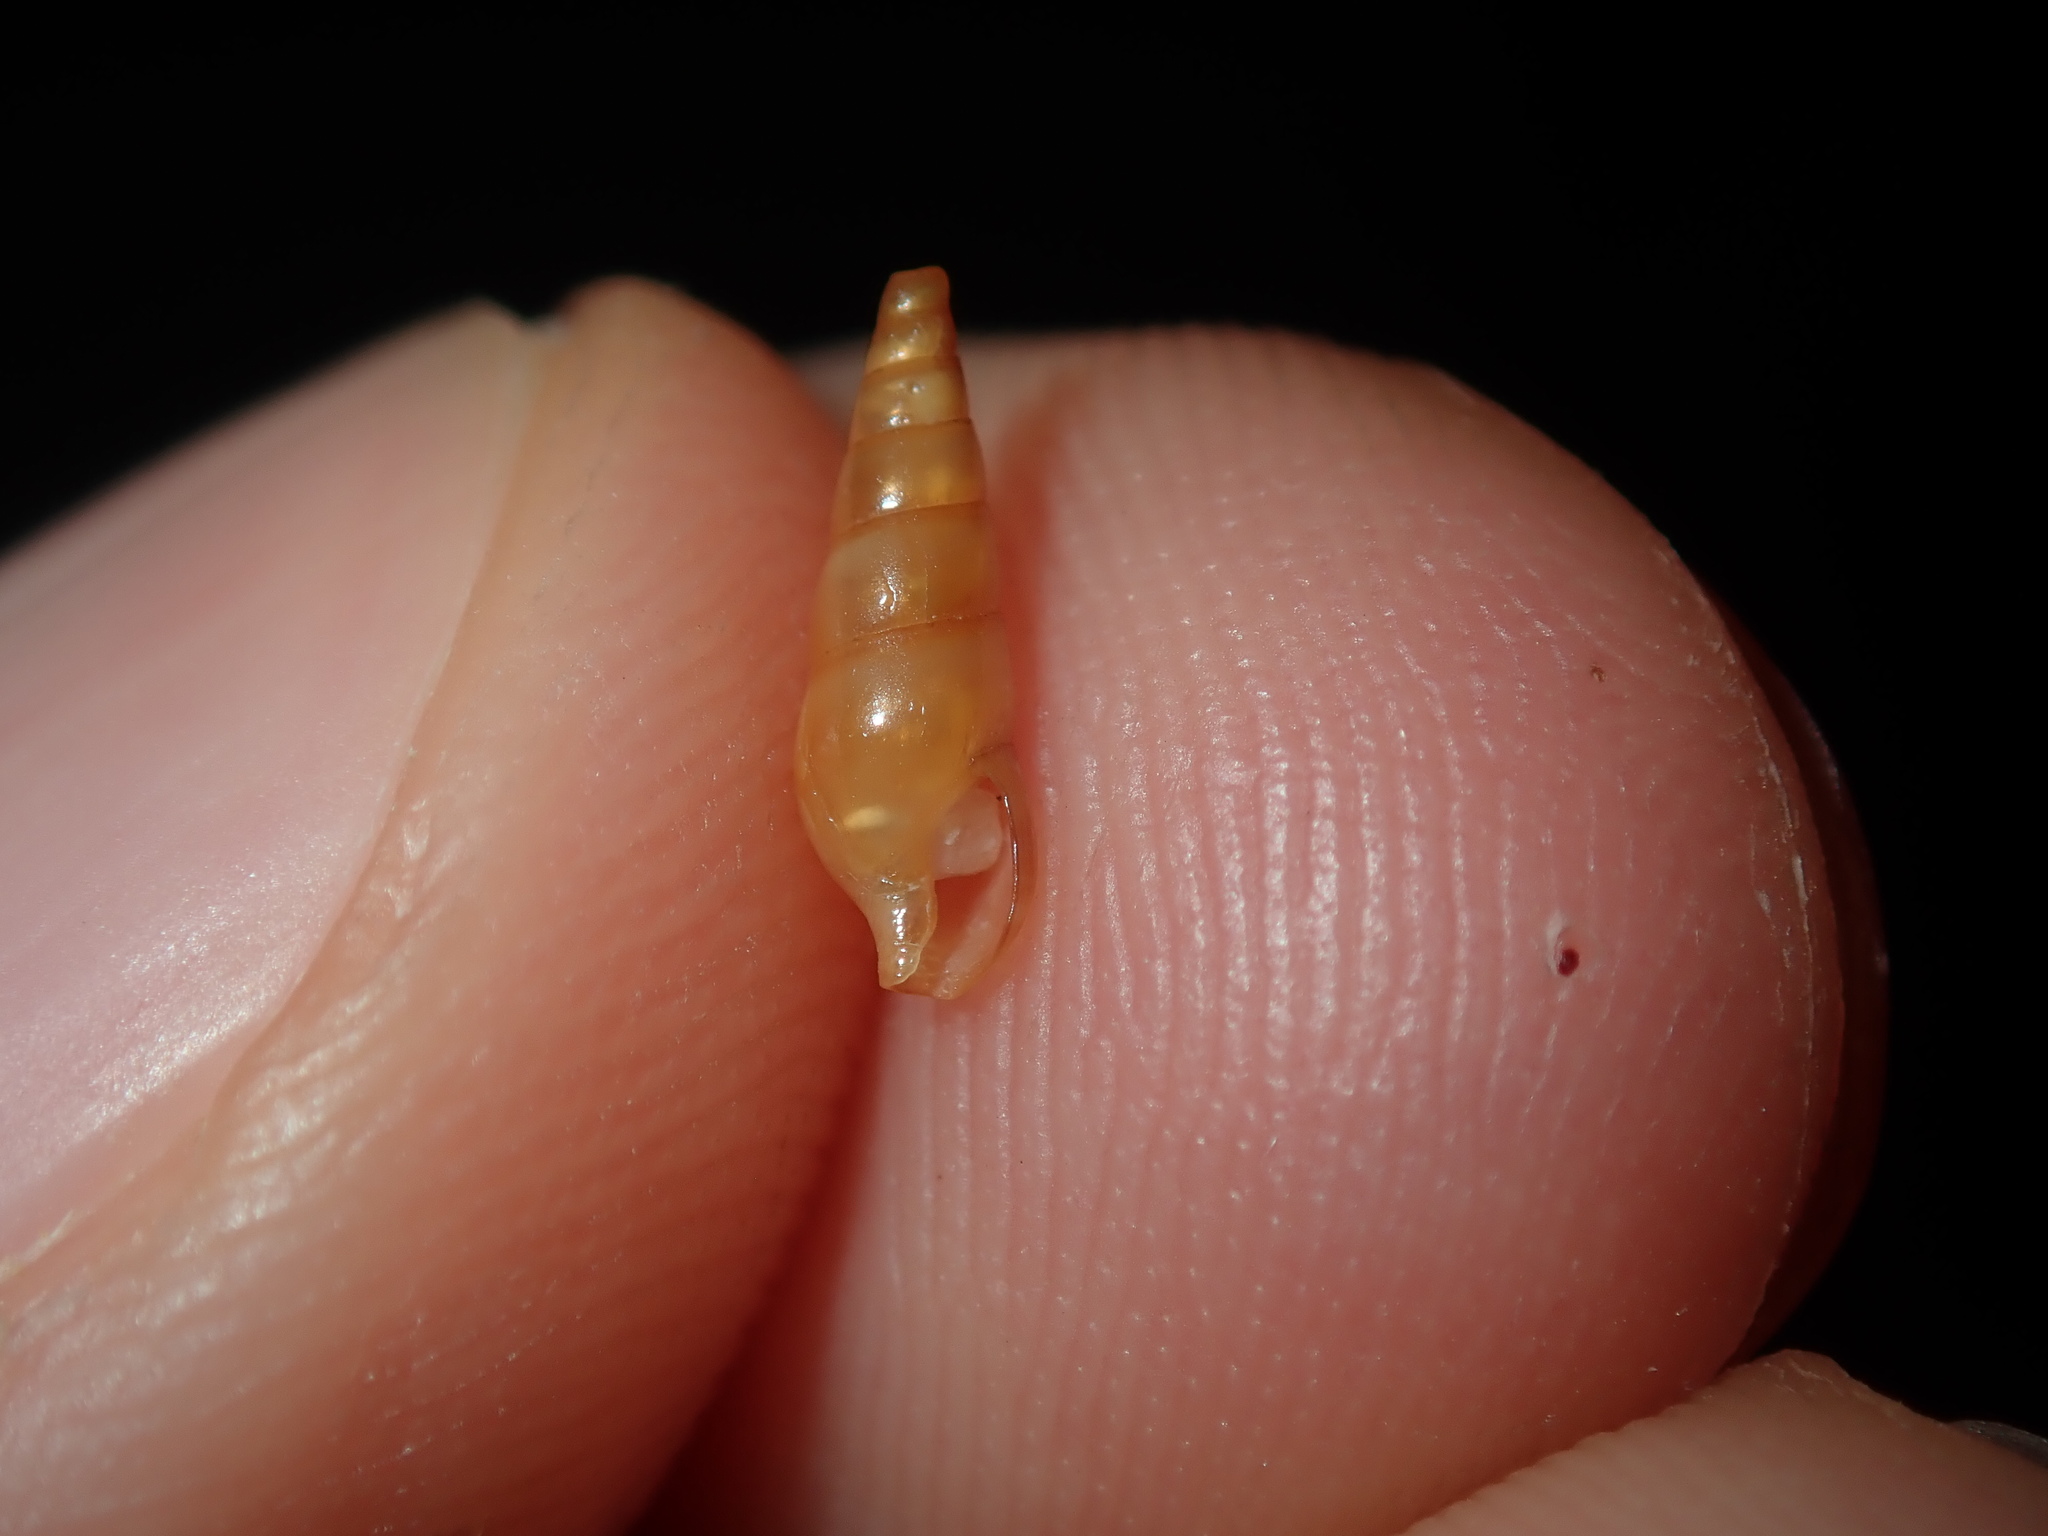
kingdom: Animalia
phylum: Mollusca
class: Gastropoda
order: Neogastropoda
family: Columbellidae
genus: Zella
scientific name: Zella beddomei
